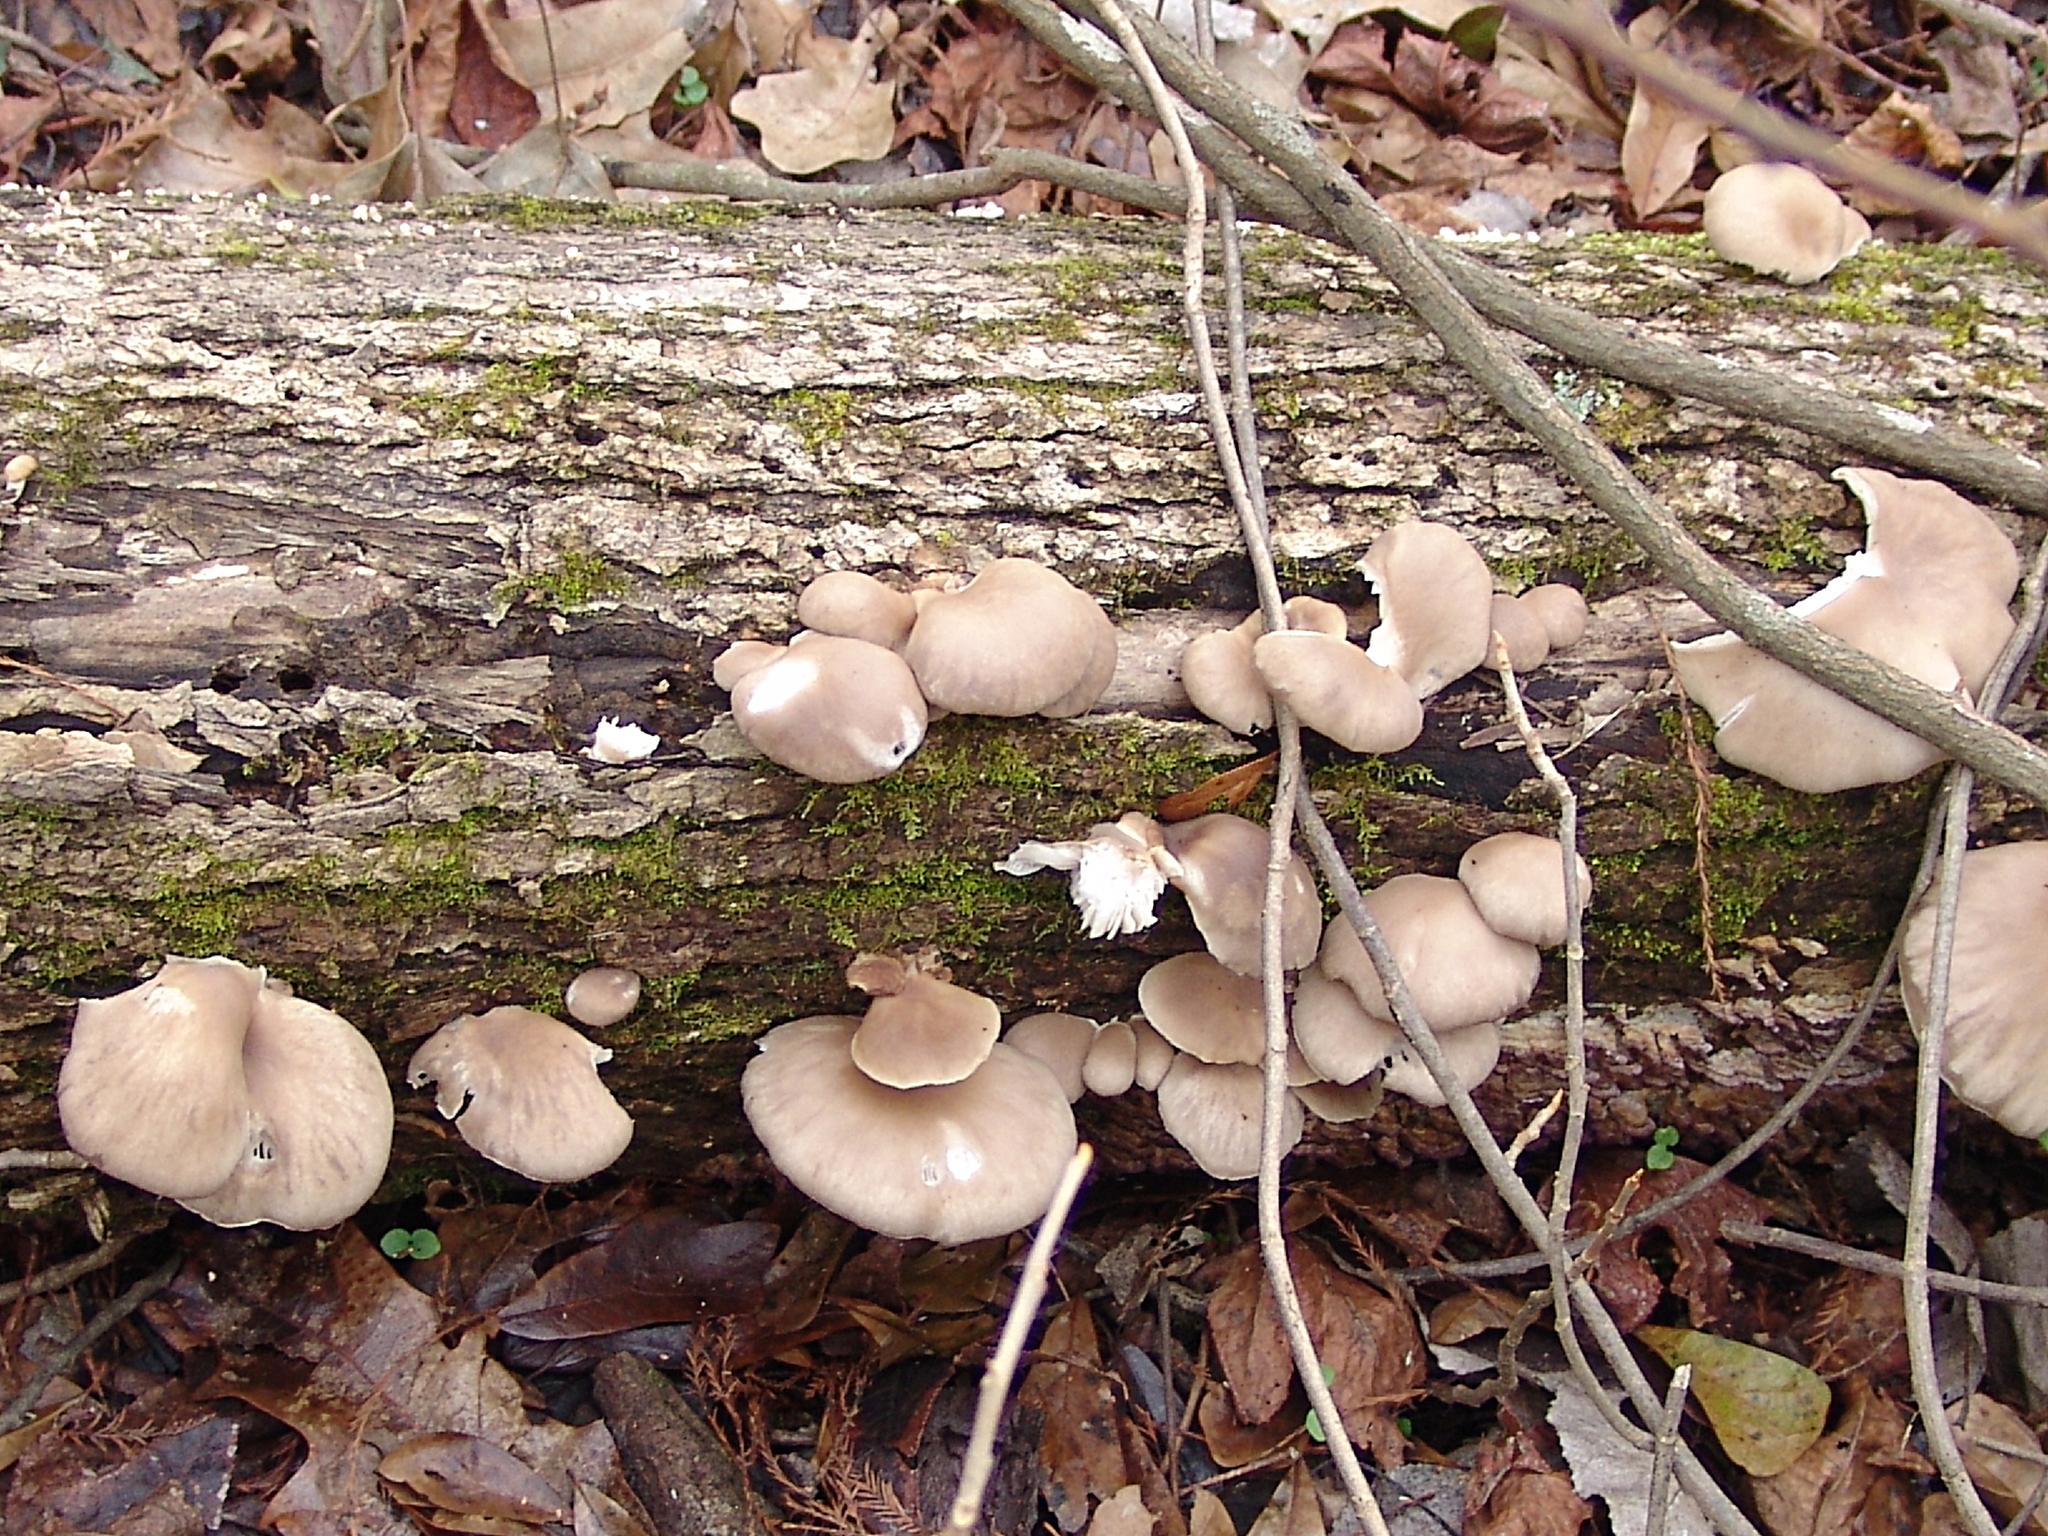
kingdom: Fungi
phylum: Basidiomycota
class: Agaricomycetes
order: Agaricales
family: Pleurotaceae
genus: Pleurotus
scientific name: Pleurotus ostreatus
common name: Oyster mushroom
